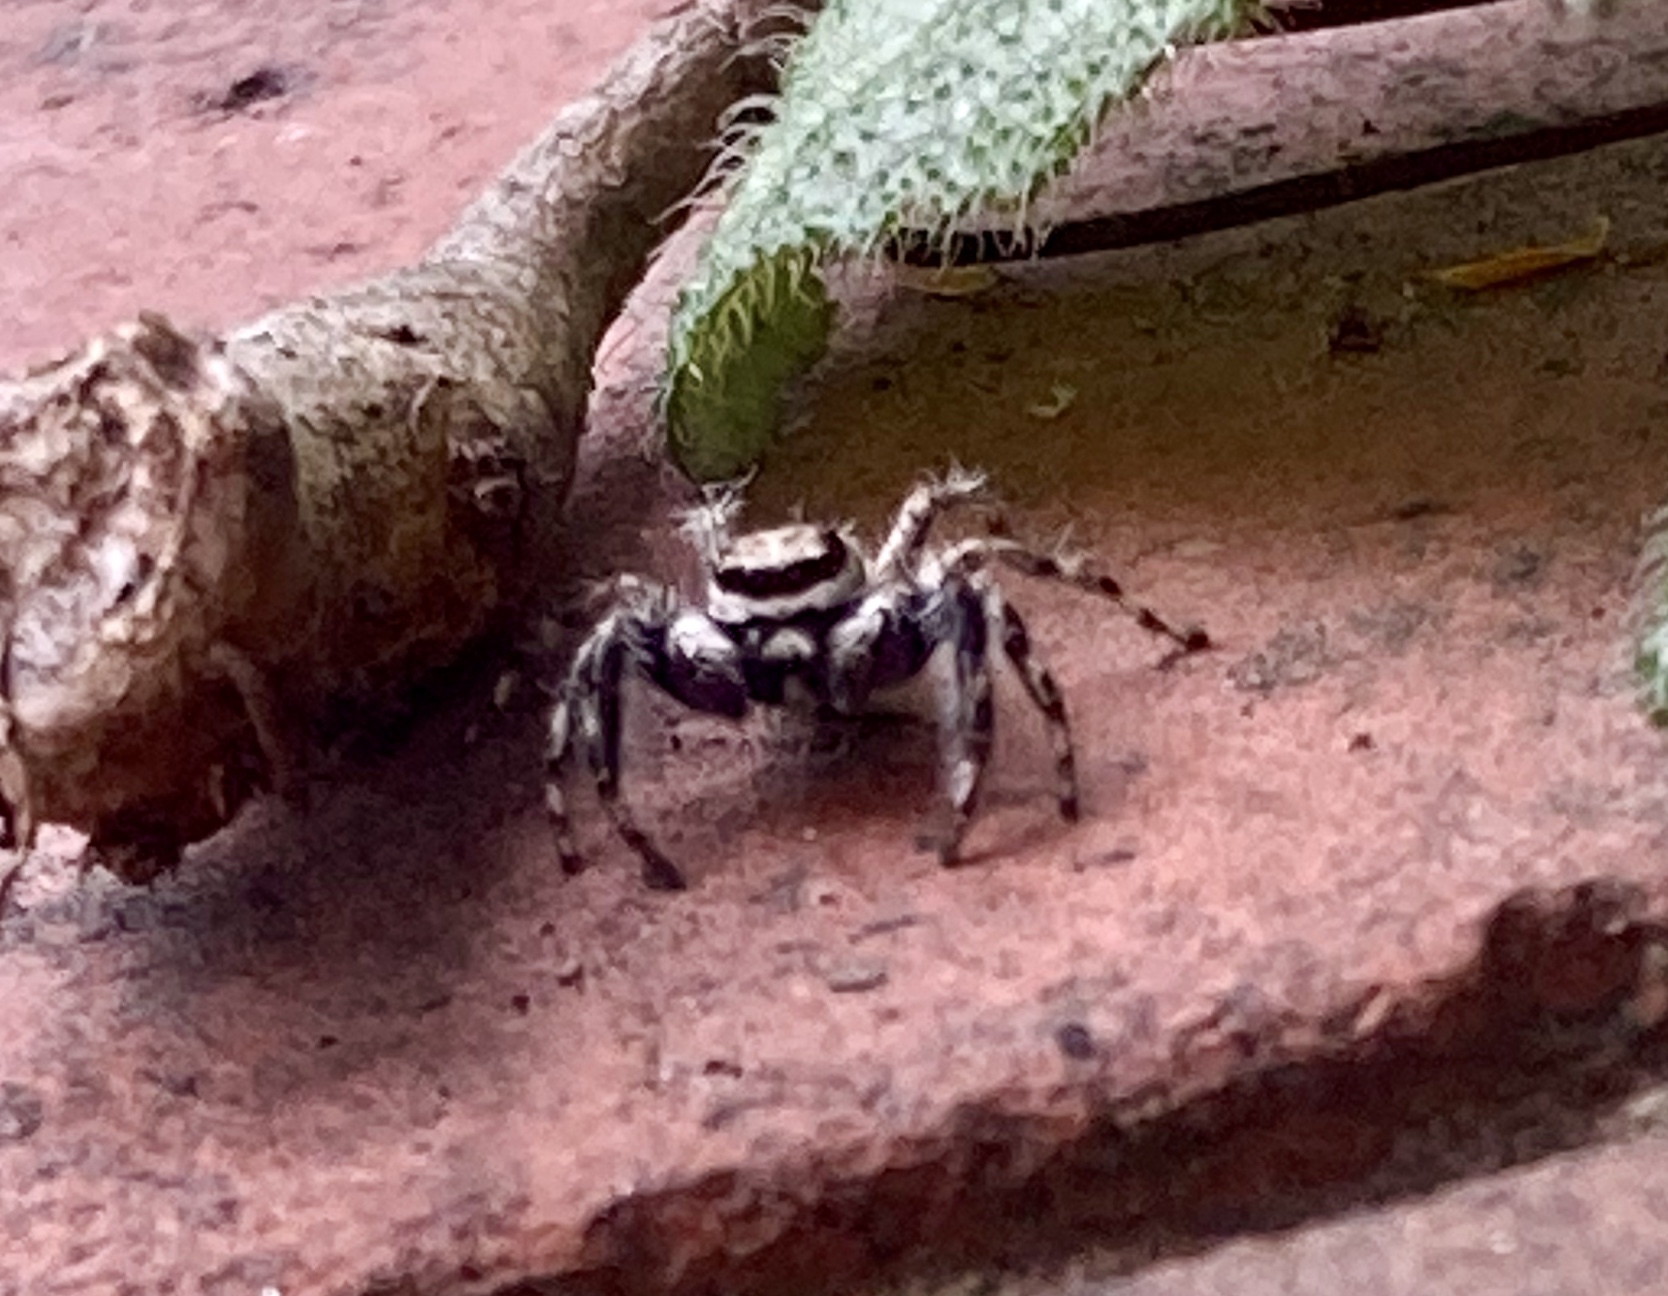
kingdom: Animalia
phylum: Arthropoda
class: Arachnida
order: Araneae
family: Salticidae
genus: Menemerus
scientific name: Menemerus bivittatus
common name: Gray wall jumper
